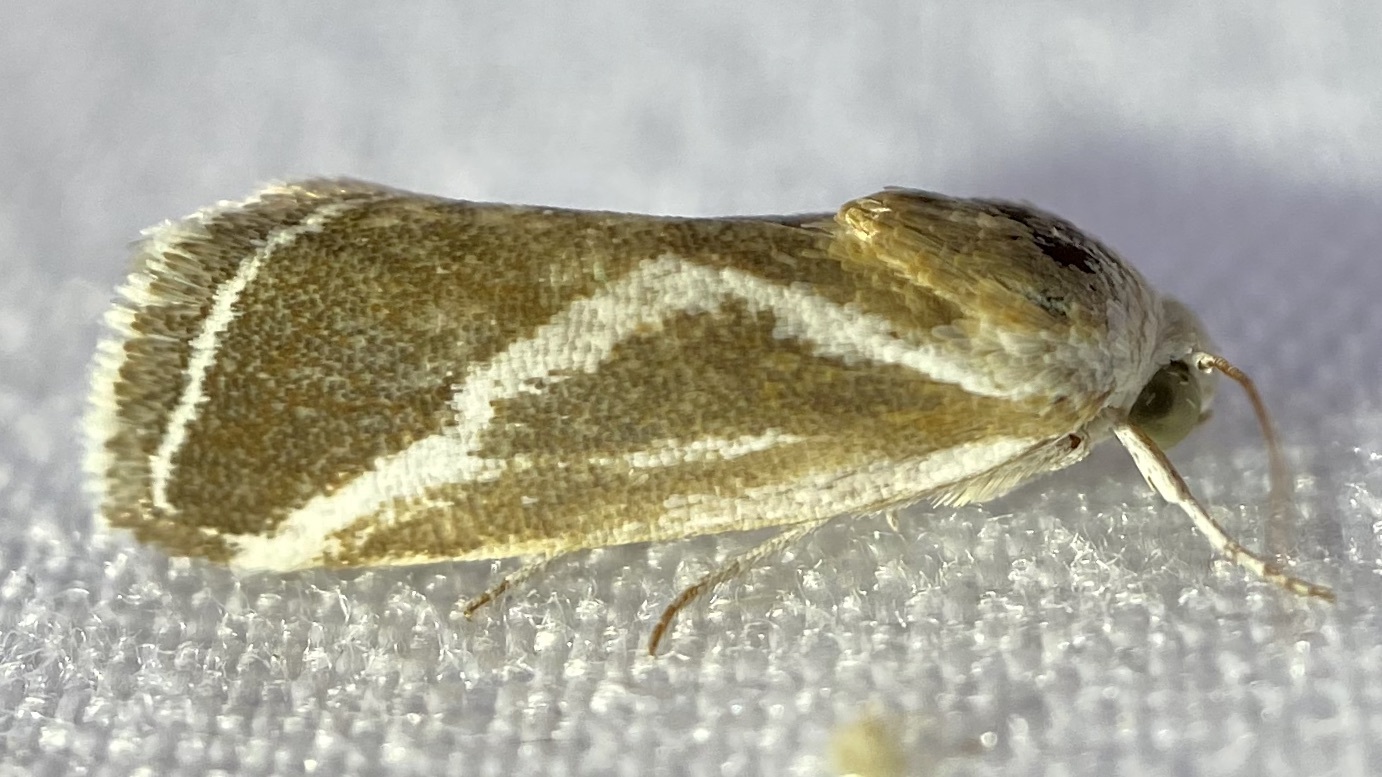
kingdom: Animalia
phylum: Arthropoda
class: Insecta
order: Lepidoptera
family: Noctuidae
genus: Acontia
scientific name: Acontia alata
